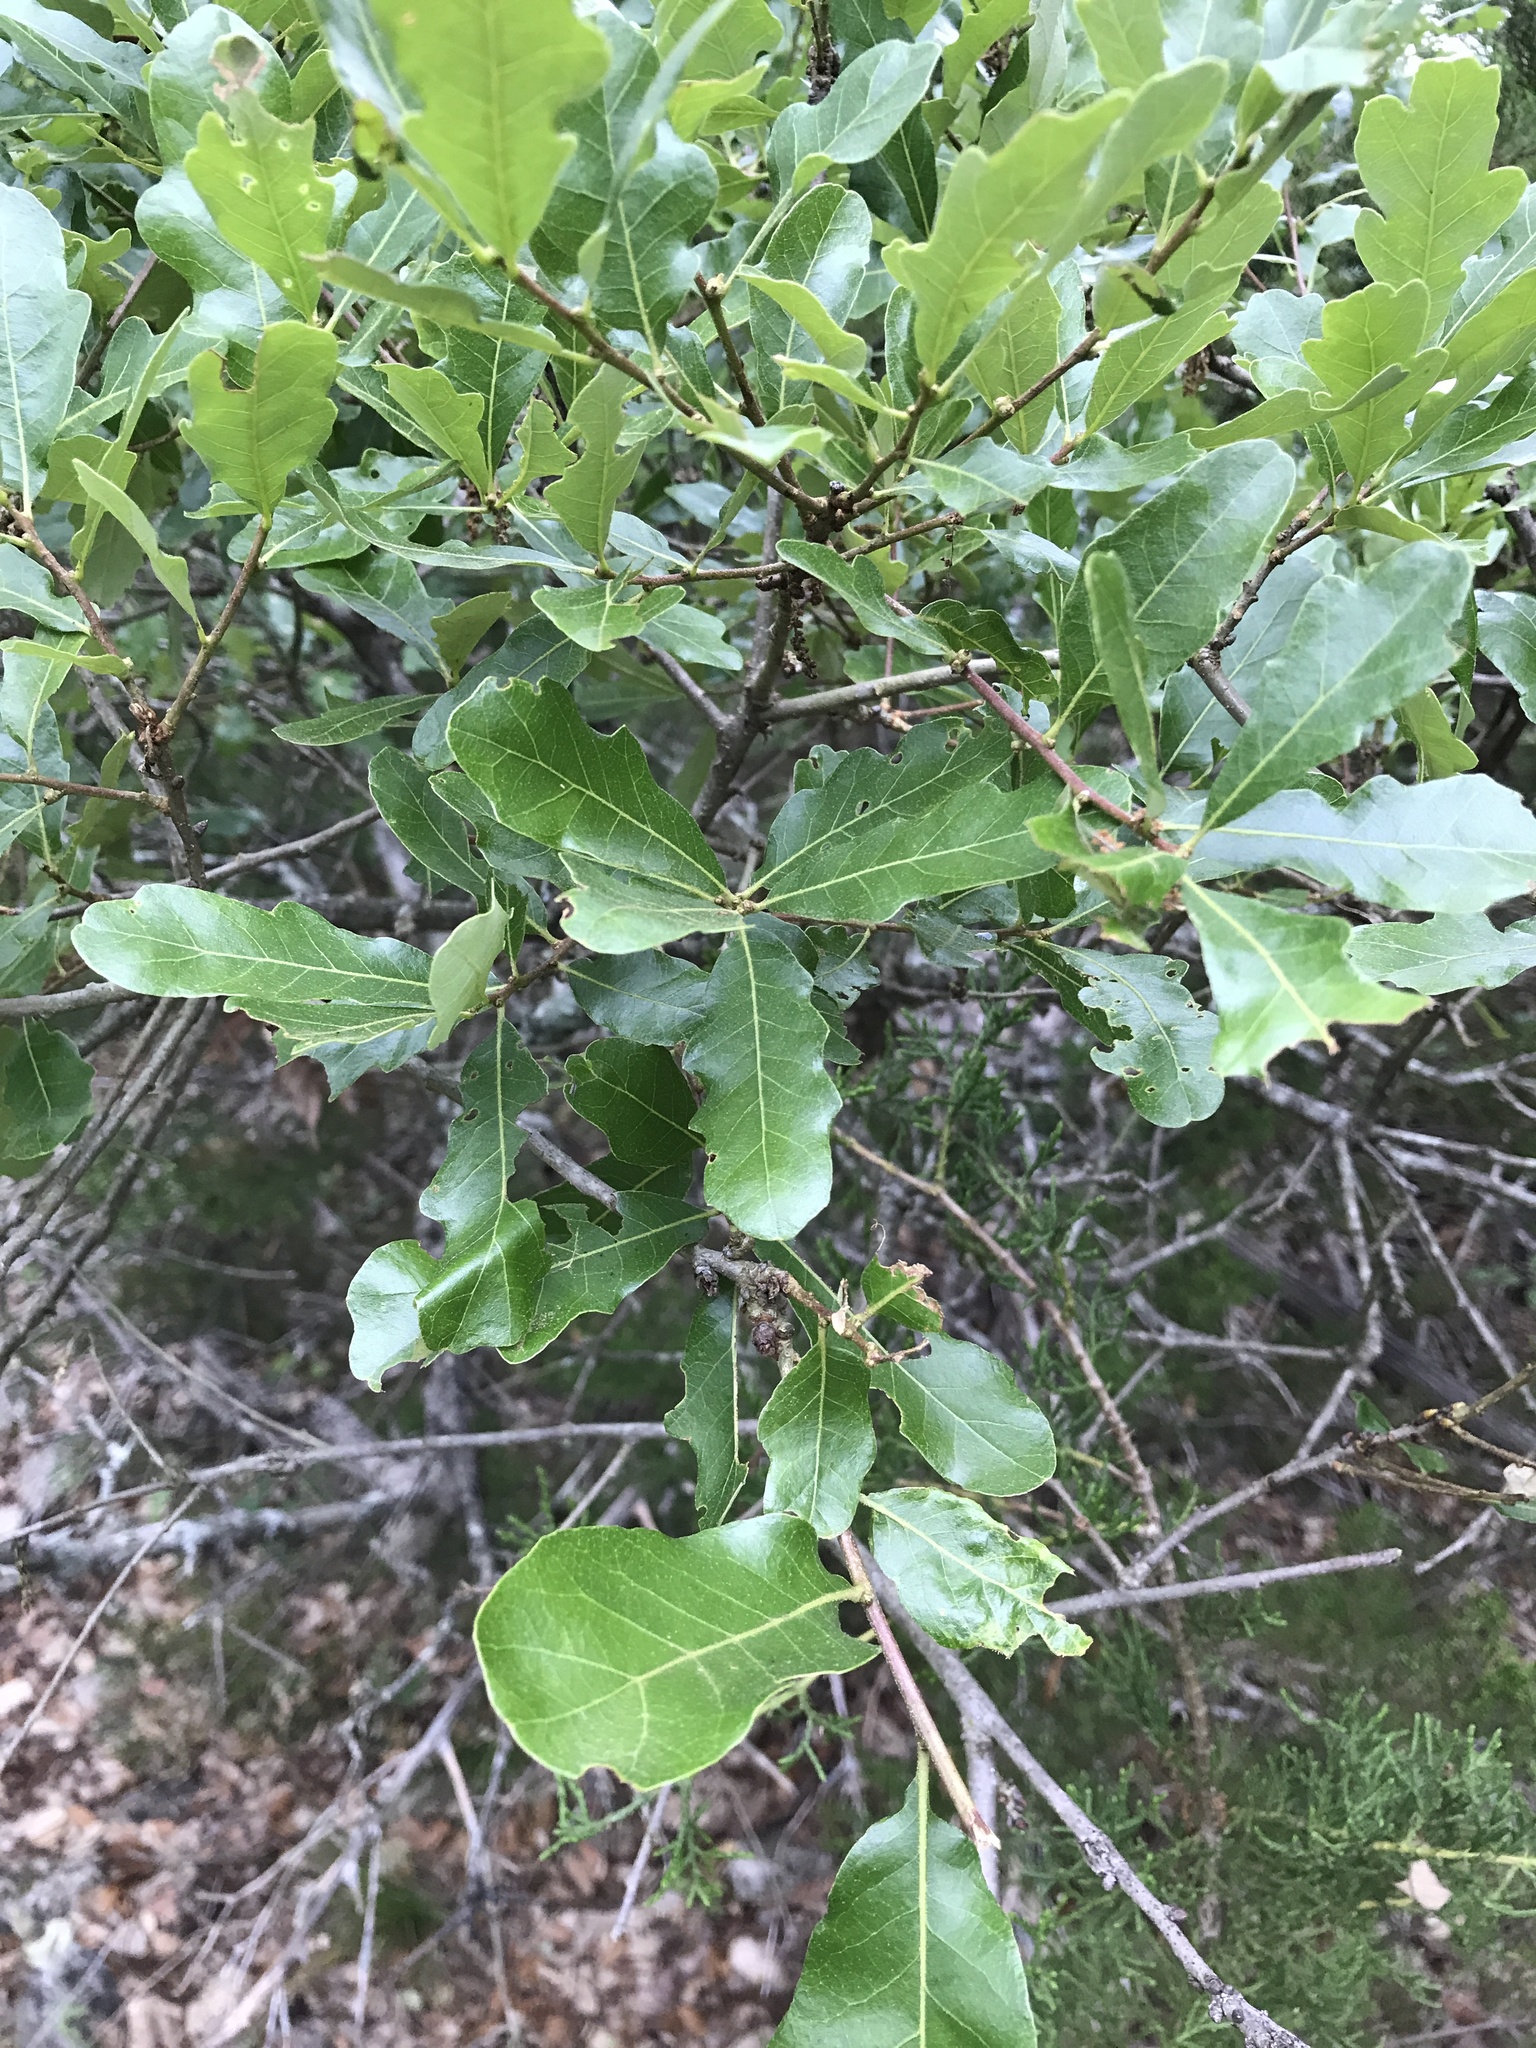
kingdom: Plantae
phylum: Tracheophyta
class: Magnoliopsida
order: Fagales
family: Fagaceae
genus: Quercus
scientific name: Quercus sinuata
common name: Durand oak
